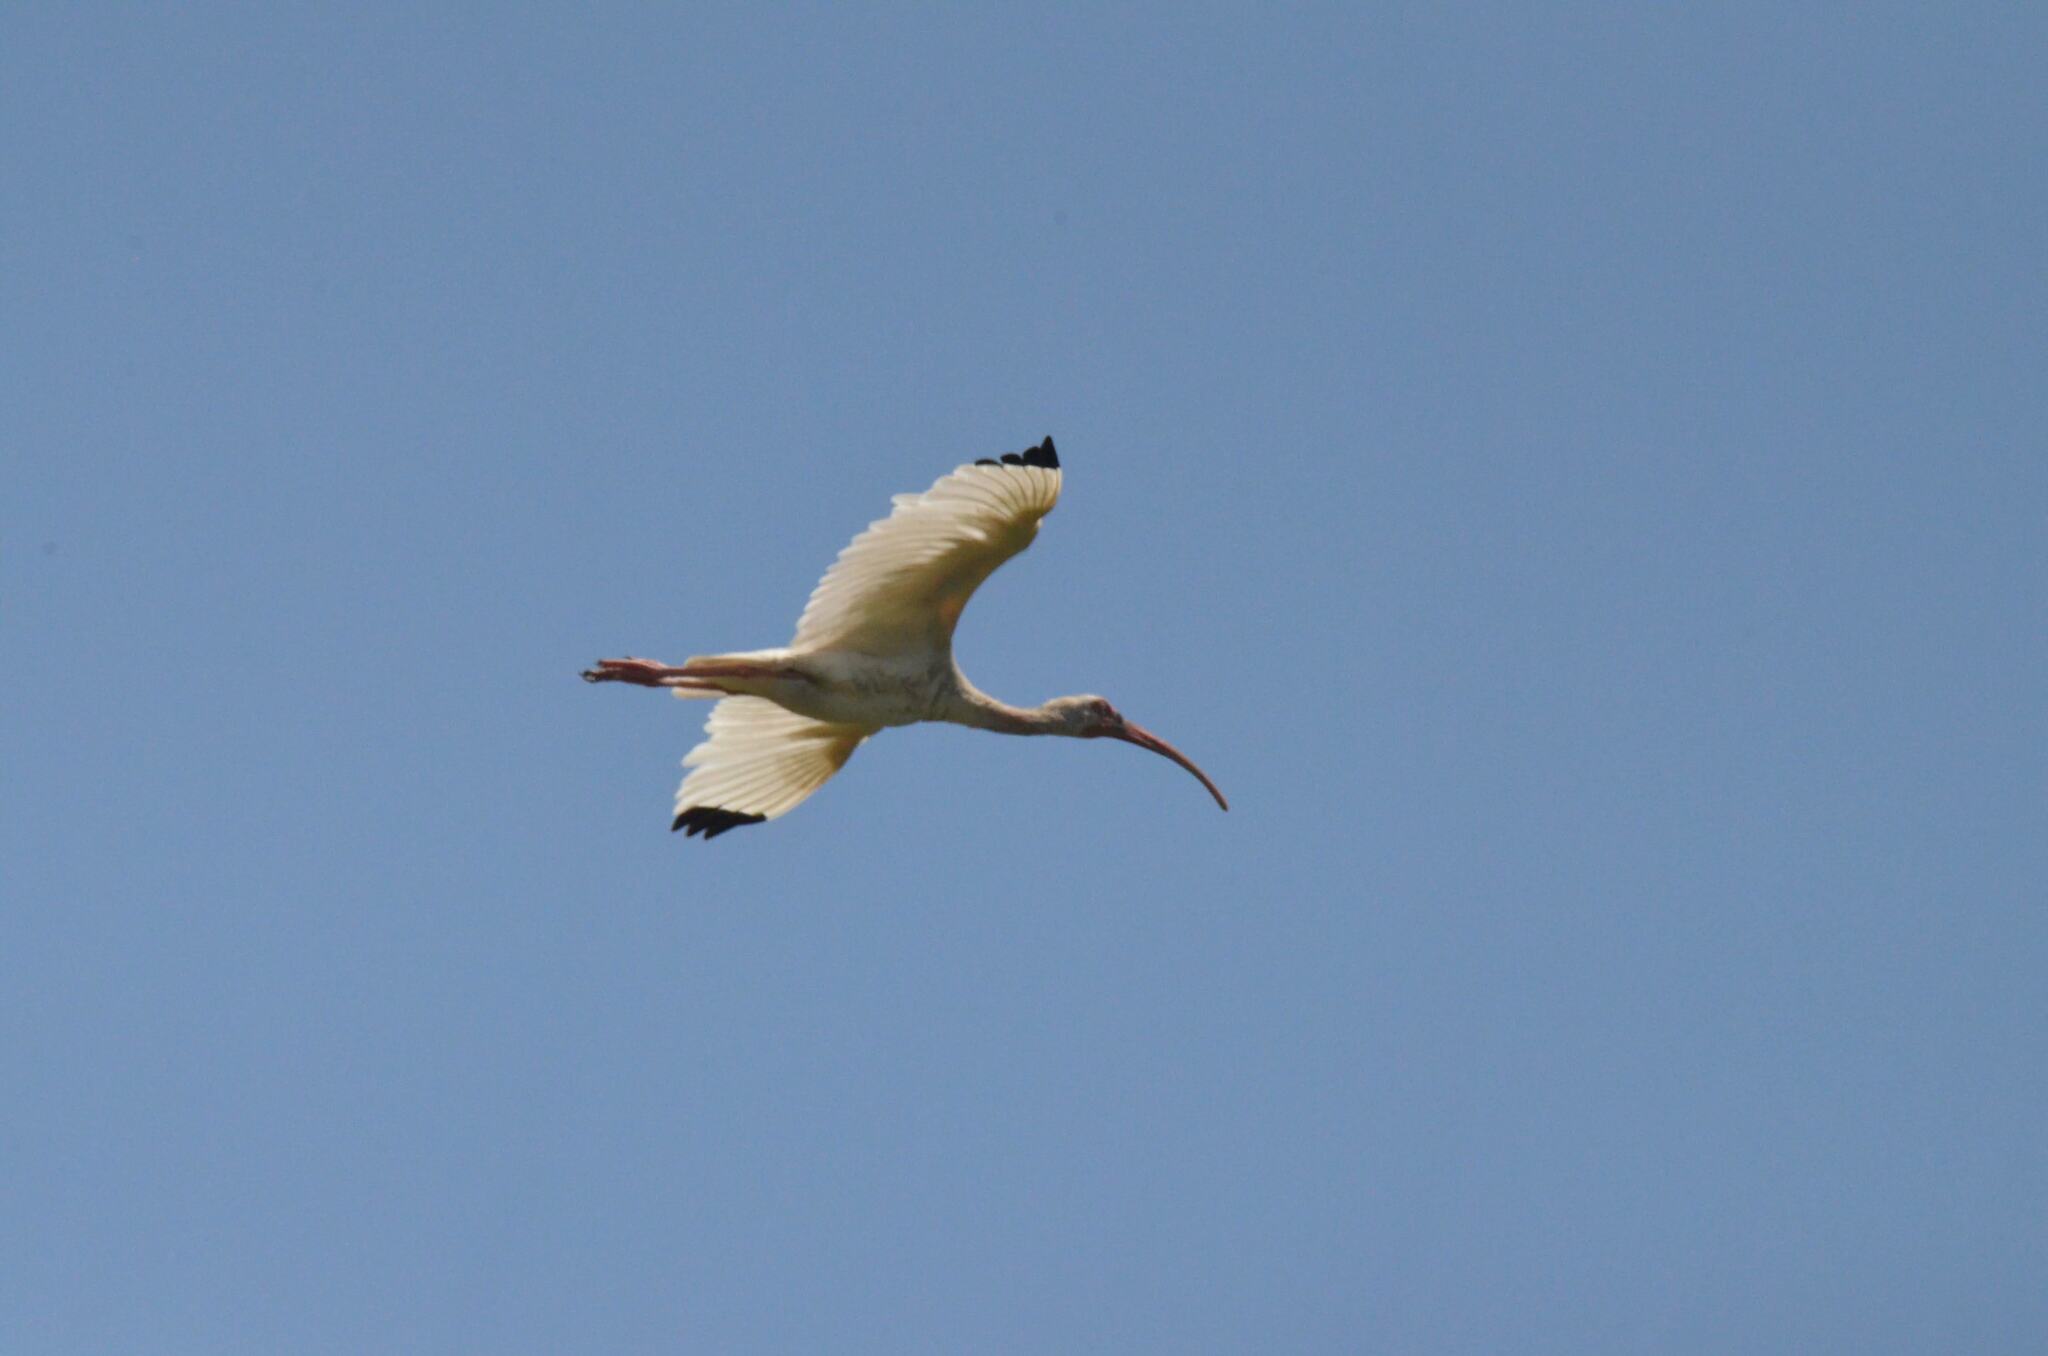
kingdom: Animalia
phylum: Chordata
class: Aves
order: Pelecaniformes
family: Threskiornithidae
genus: Eudocimus
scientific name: Eudocimus albus
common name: White ibis
